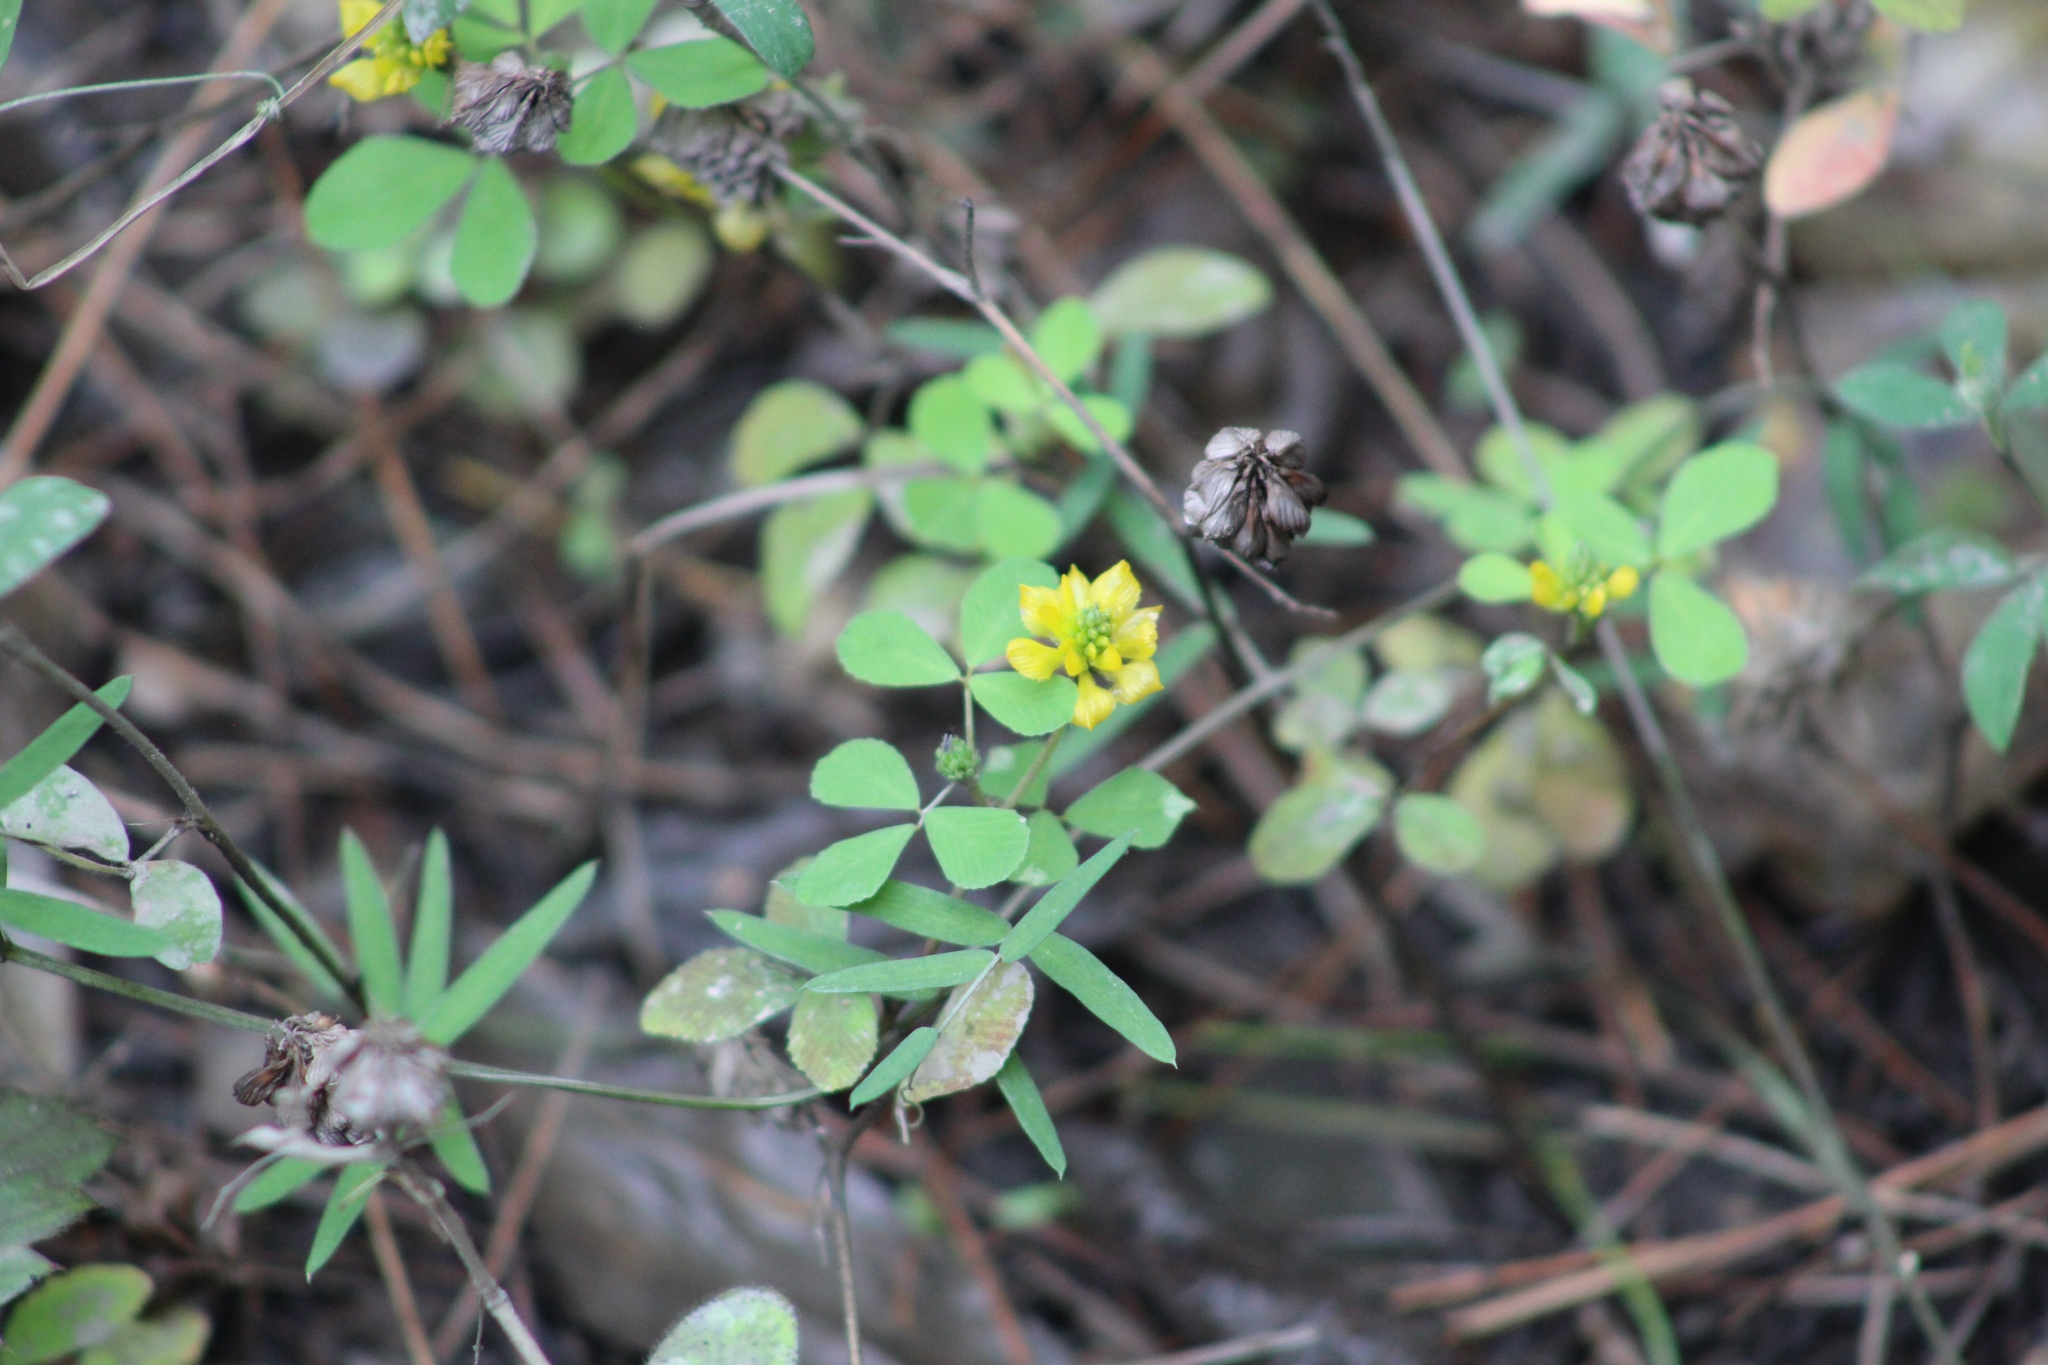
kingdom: Plantae
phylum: Tracheophyta
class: Magnoliopsida
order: Fabales
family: Fabaceae
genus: Trifolium
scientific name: Trifolium campestre
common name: Field clover
